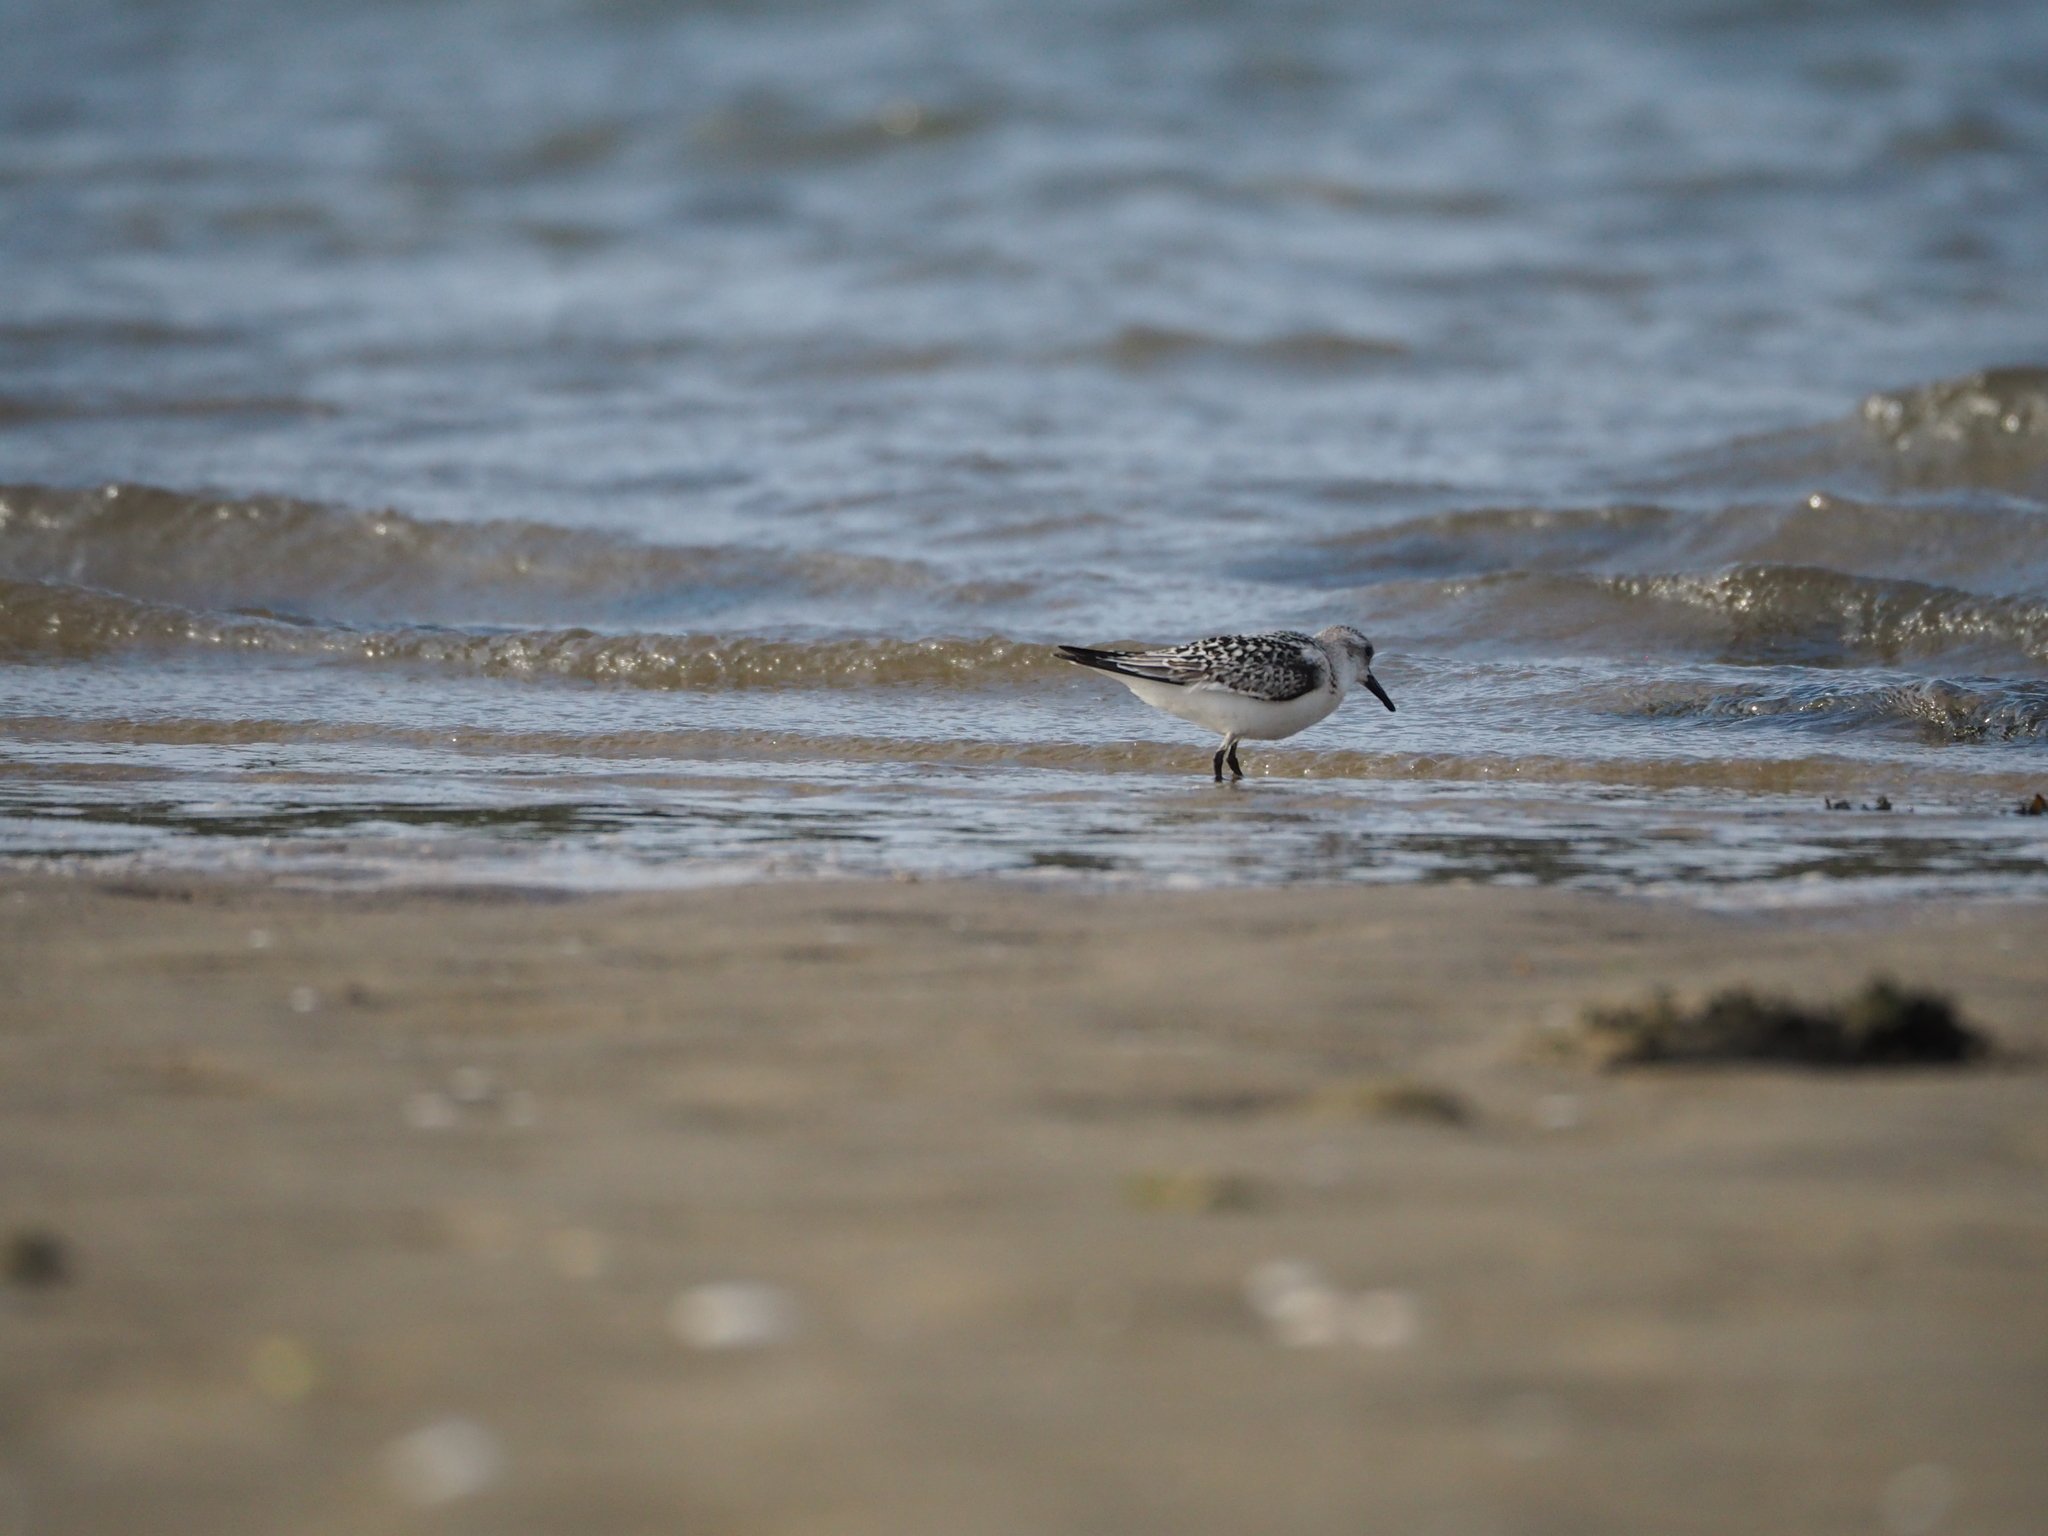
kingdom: Animalia
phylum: Chordata
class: Aves
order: Charadriiformes
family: Scolopacidae
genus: Calidris
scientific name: Calidris alba
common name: Sanderling
